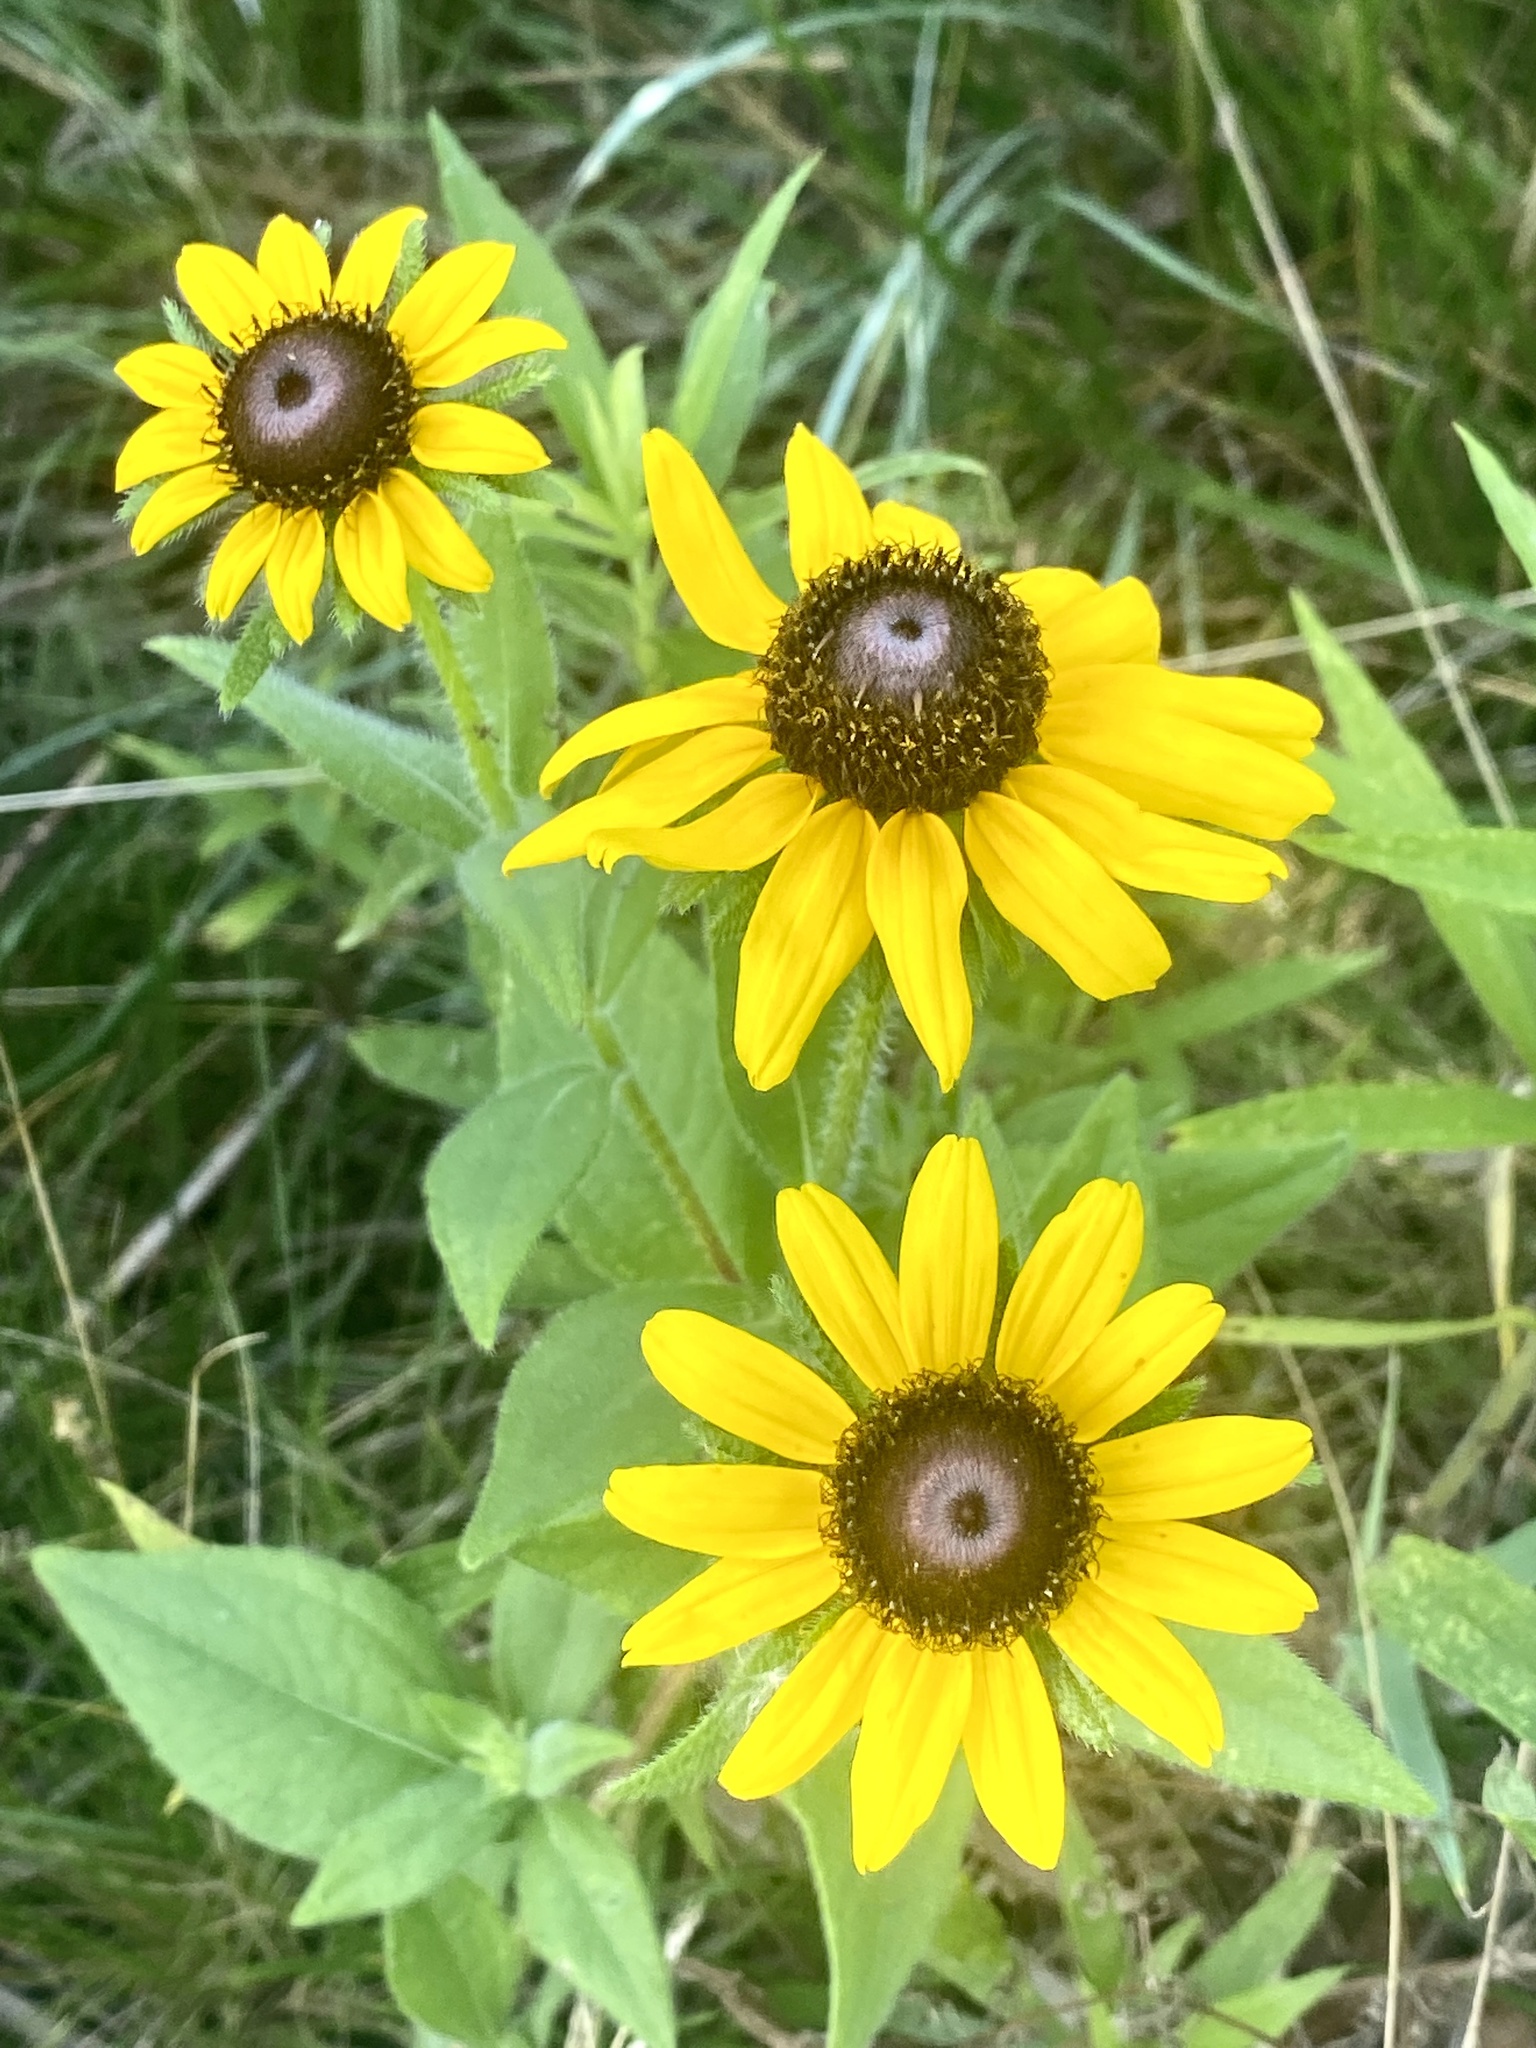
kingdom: Plantae
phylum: Tracheophyta
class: Magnoliopsida
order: Asterales
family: Asteraceae
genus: Rudbeckia
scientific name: Rudbeckia hirta
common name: Black-eyed-susan
